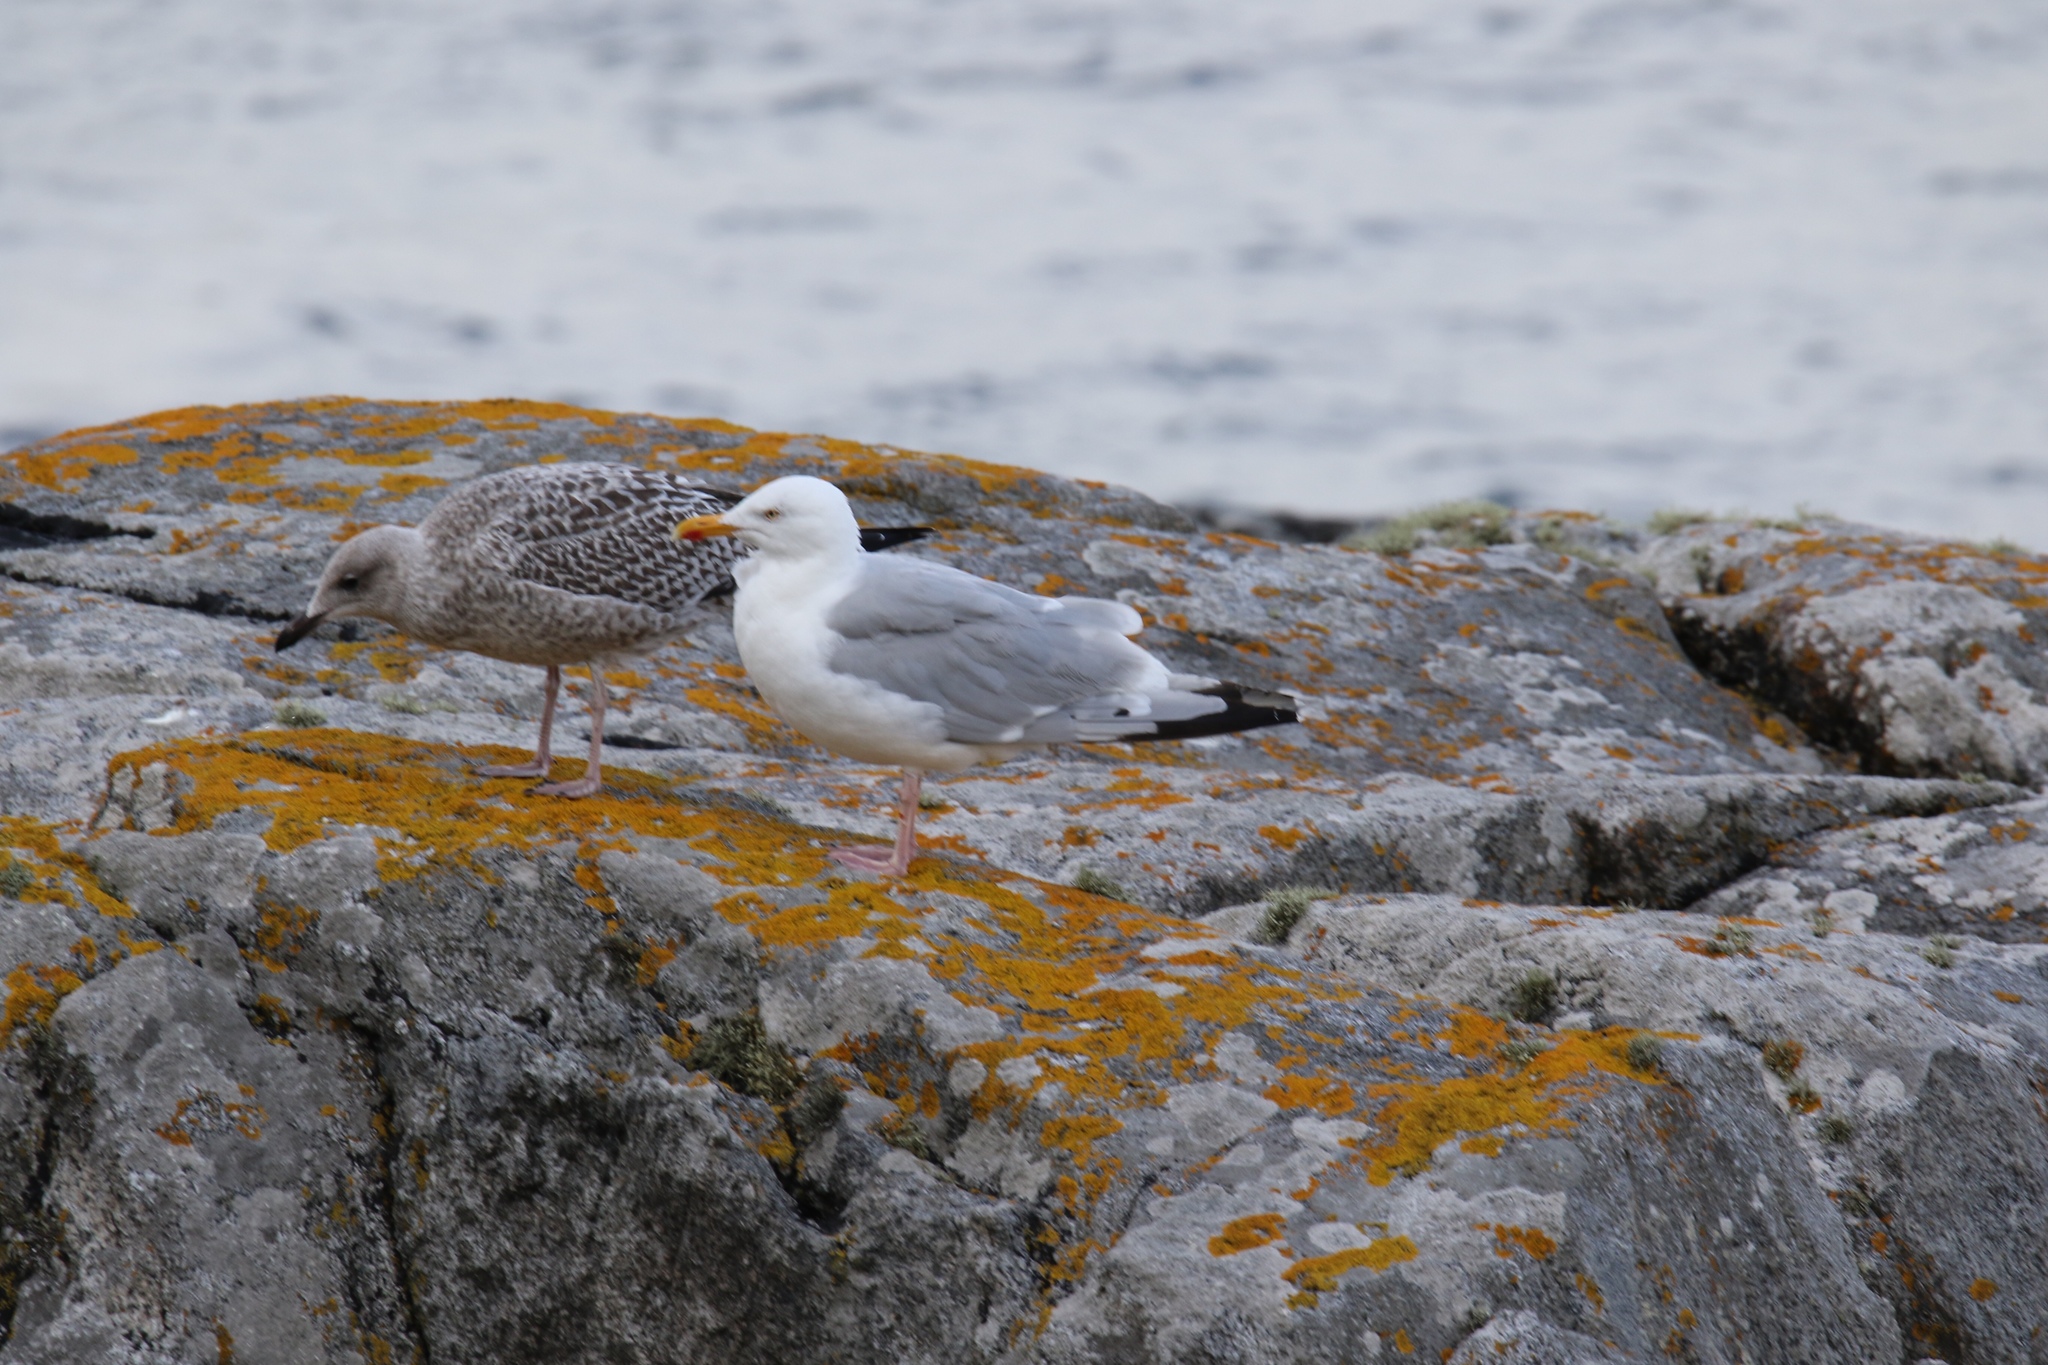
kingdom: Animalia
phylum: Chordata
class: Aves
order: Charadriiformes
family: Laridae
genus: Larus
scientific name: Larus argentatus
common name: Herring gull
